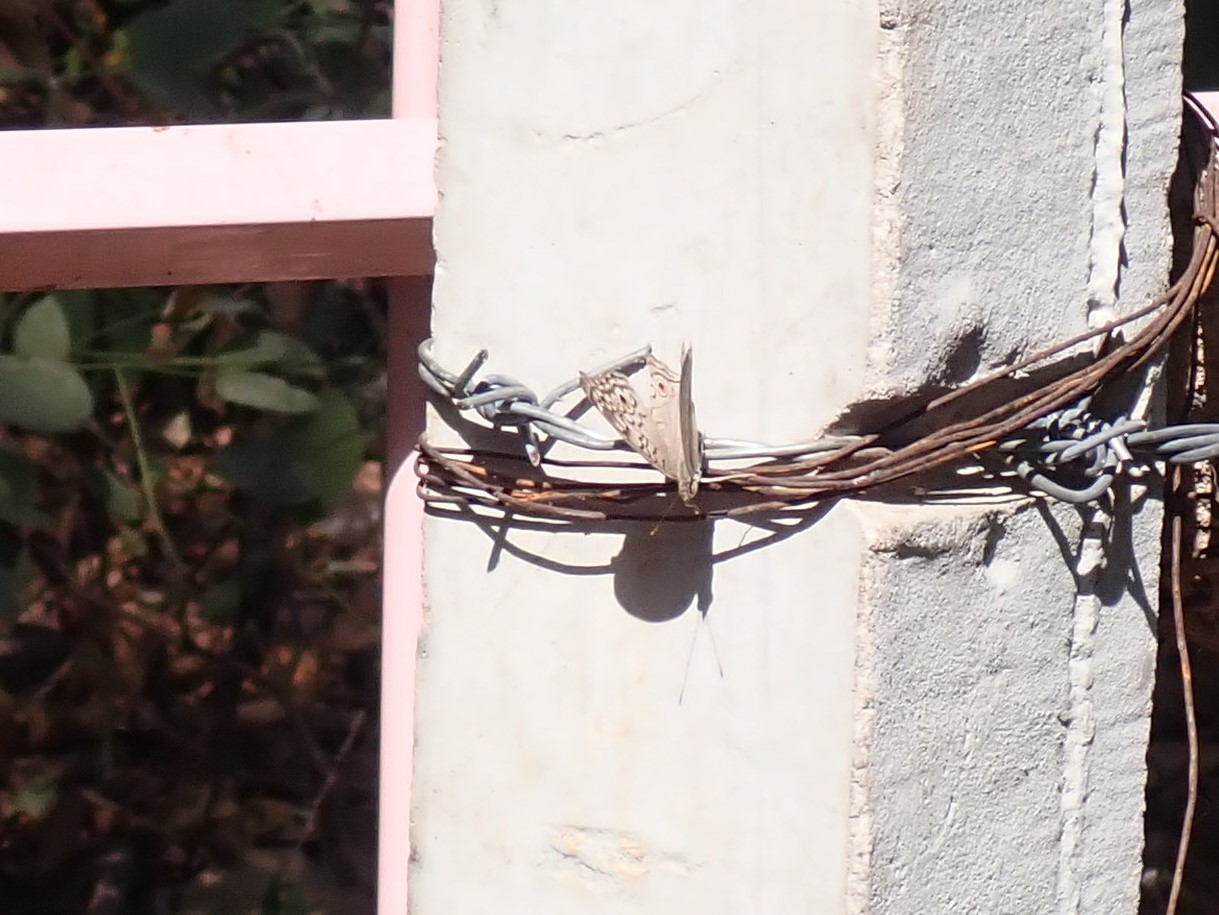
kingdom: Animalia
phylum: Arthropoda
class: Insecta
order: Lepidoptera
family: Nymphalidae
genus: Junonia
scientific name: Junonia atlites
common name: Grey pansy
